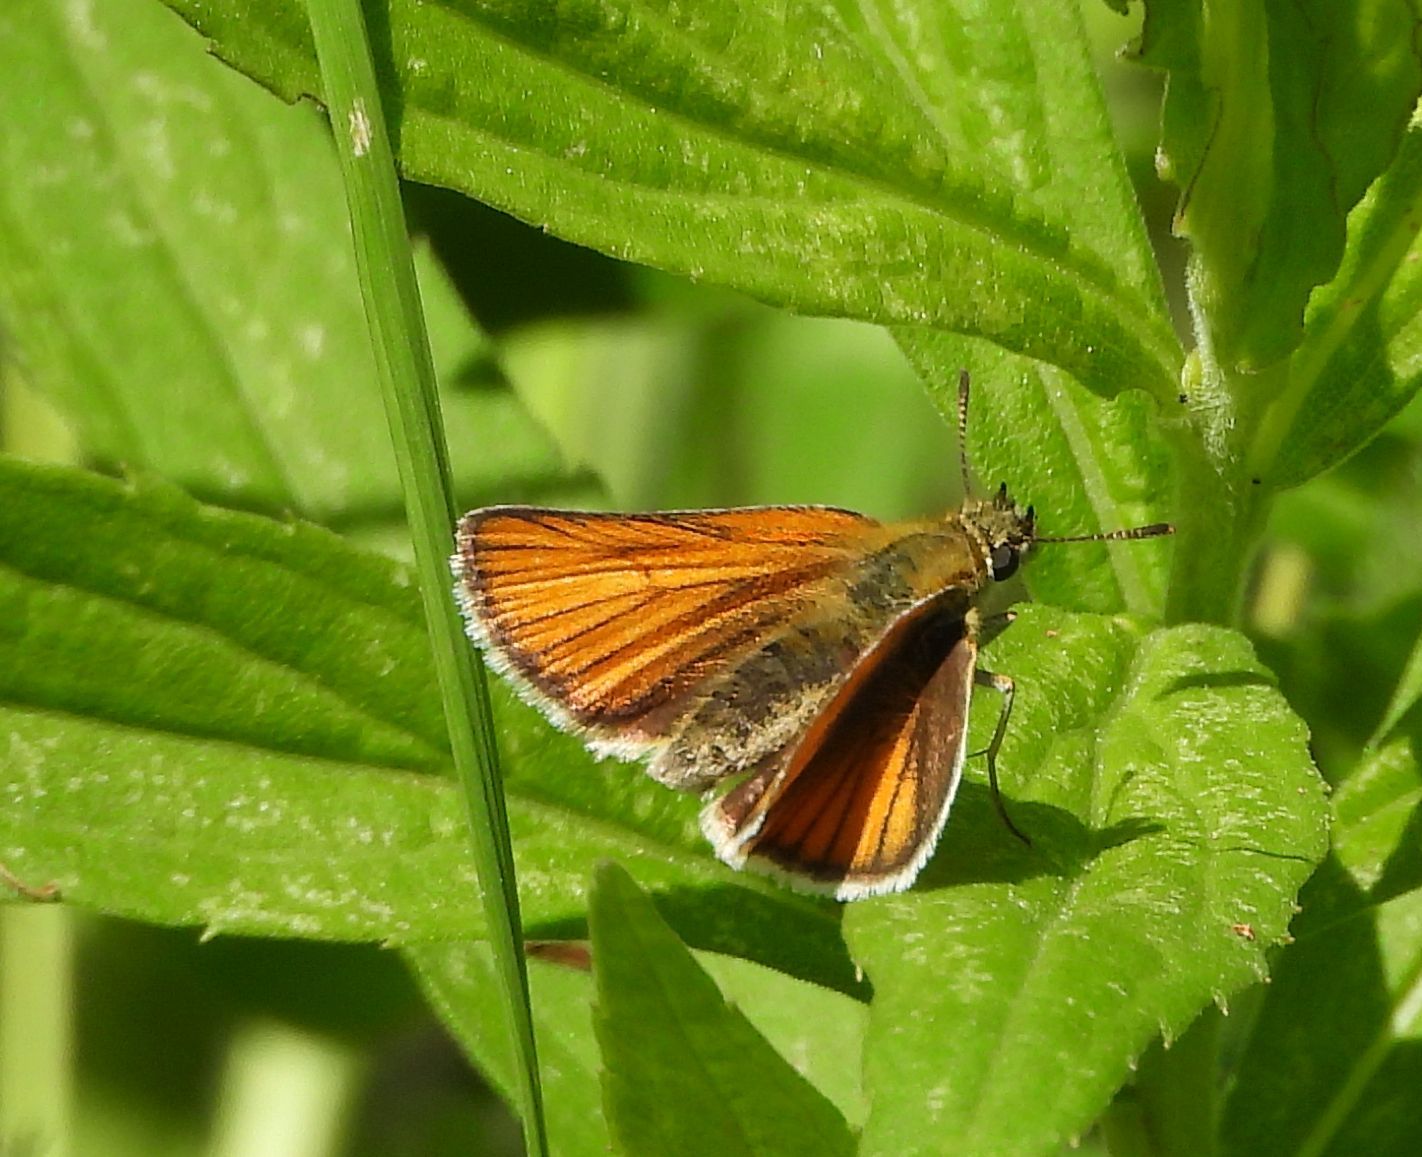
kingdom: Animalia
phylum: Arthropoda
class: Insecta
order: Lepidoptera
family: Hesperiidae
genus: Thymelicus
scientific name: Thymelicus lineola
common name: Essex skipper
